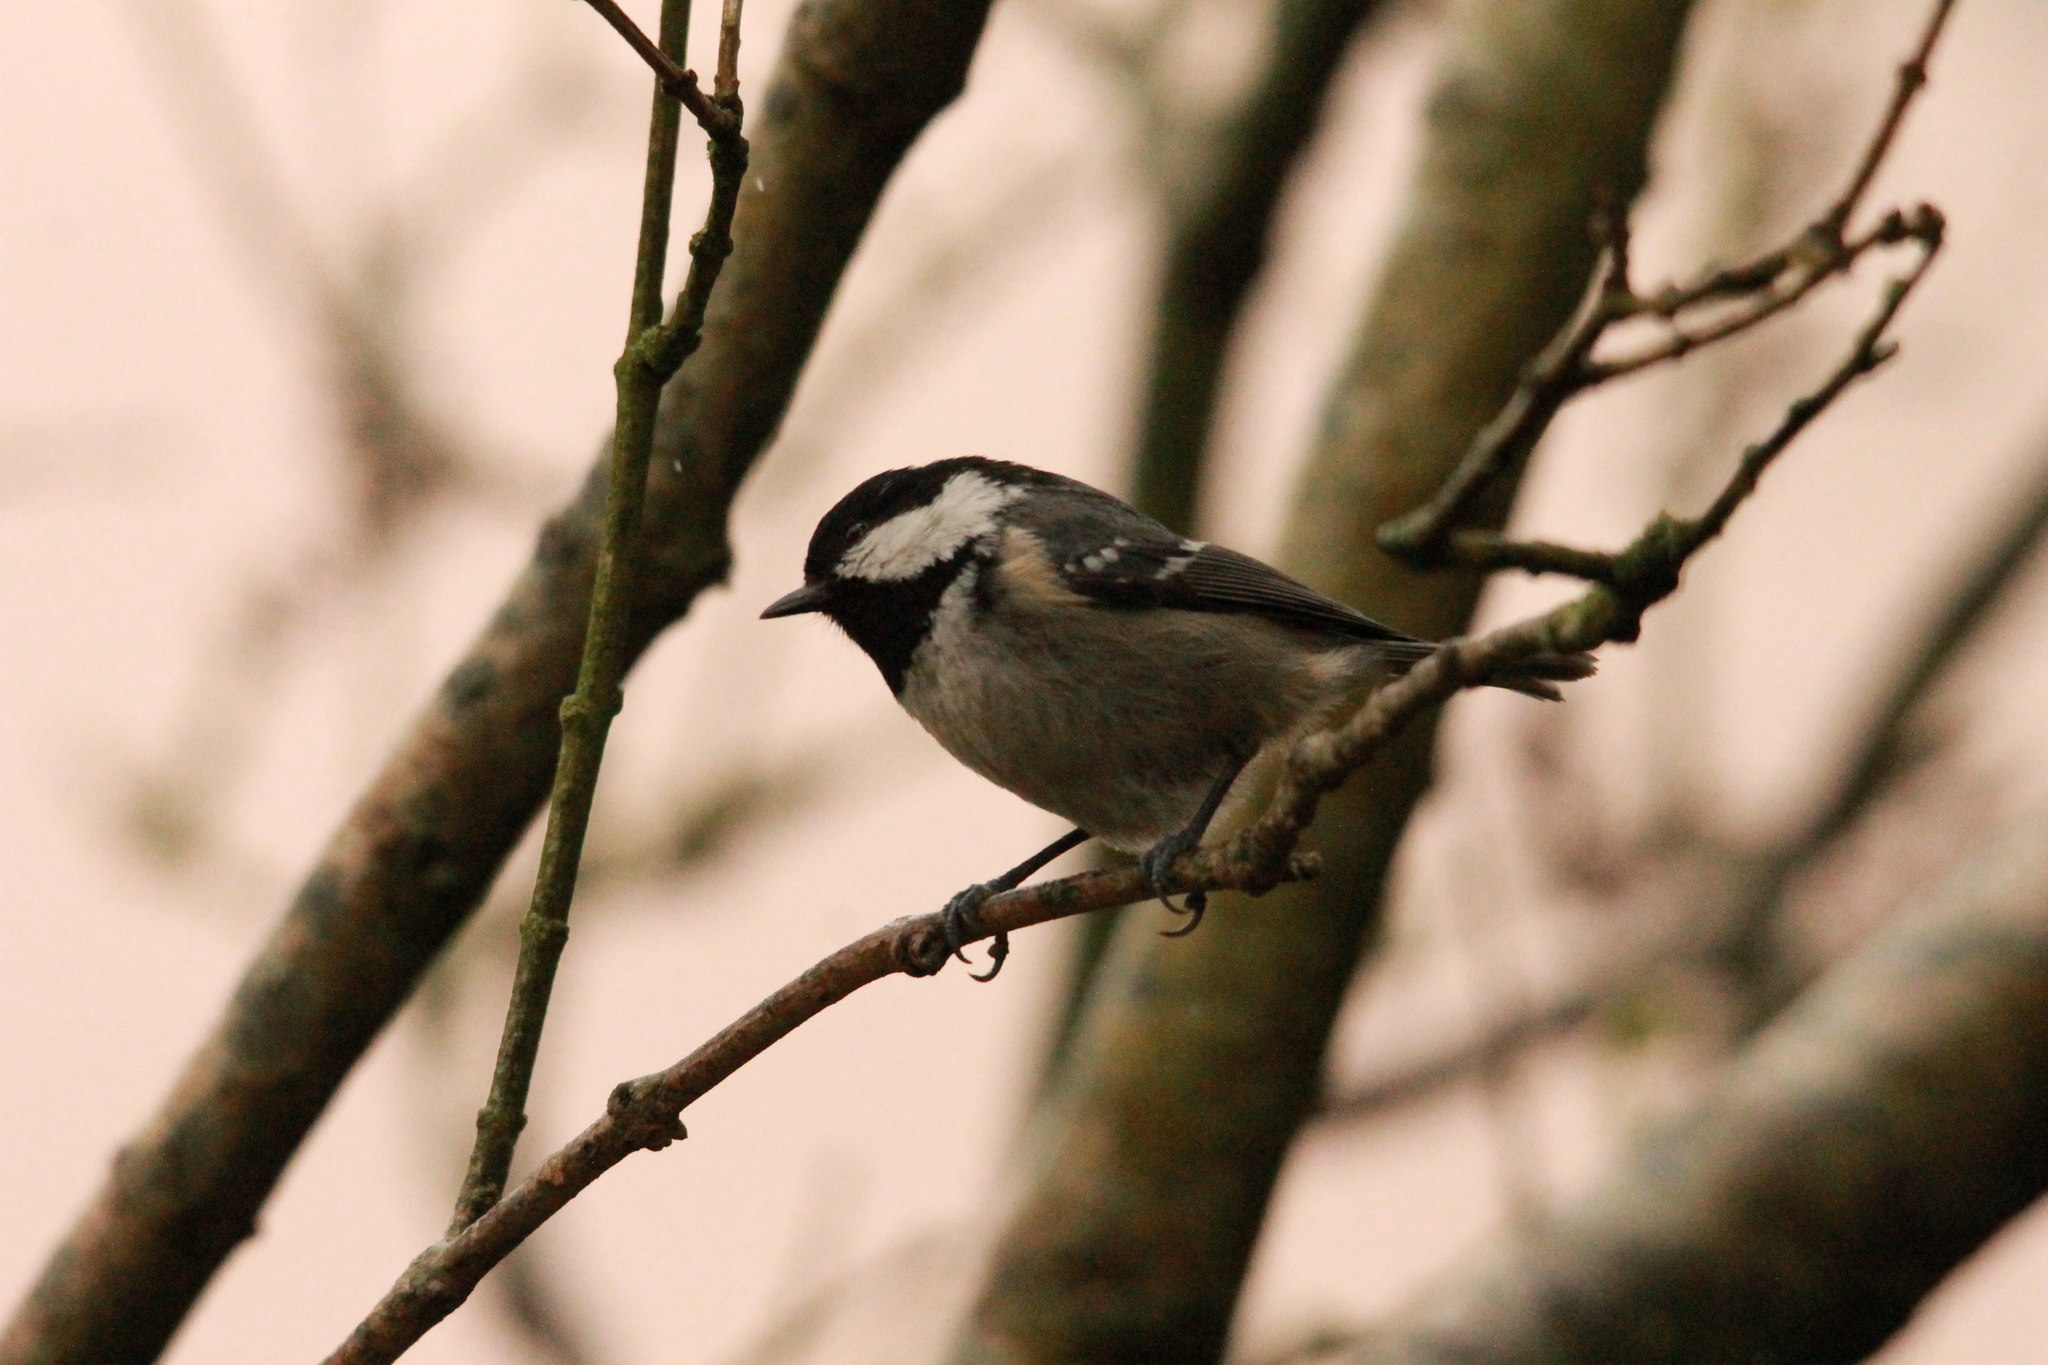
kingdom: Animalia
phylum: Chordata
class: Aves
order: Passeriformes
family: Paridae
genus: Periparus
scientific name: Periparus ater
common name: Coal tit
